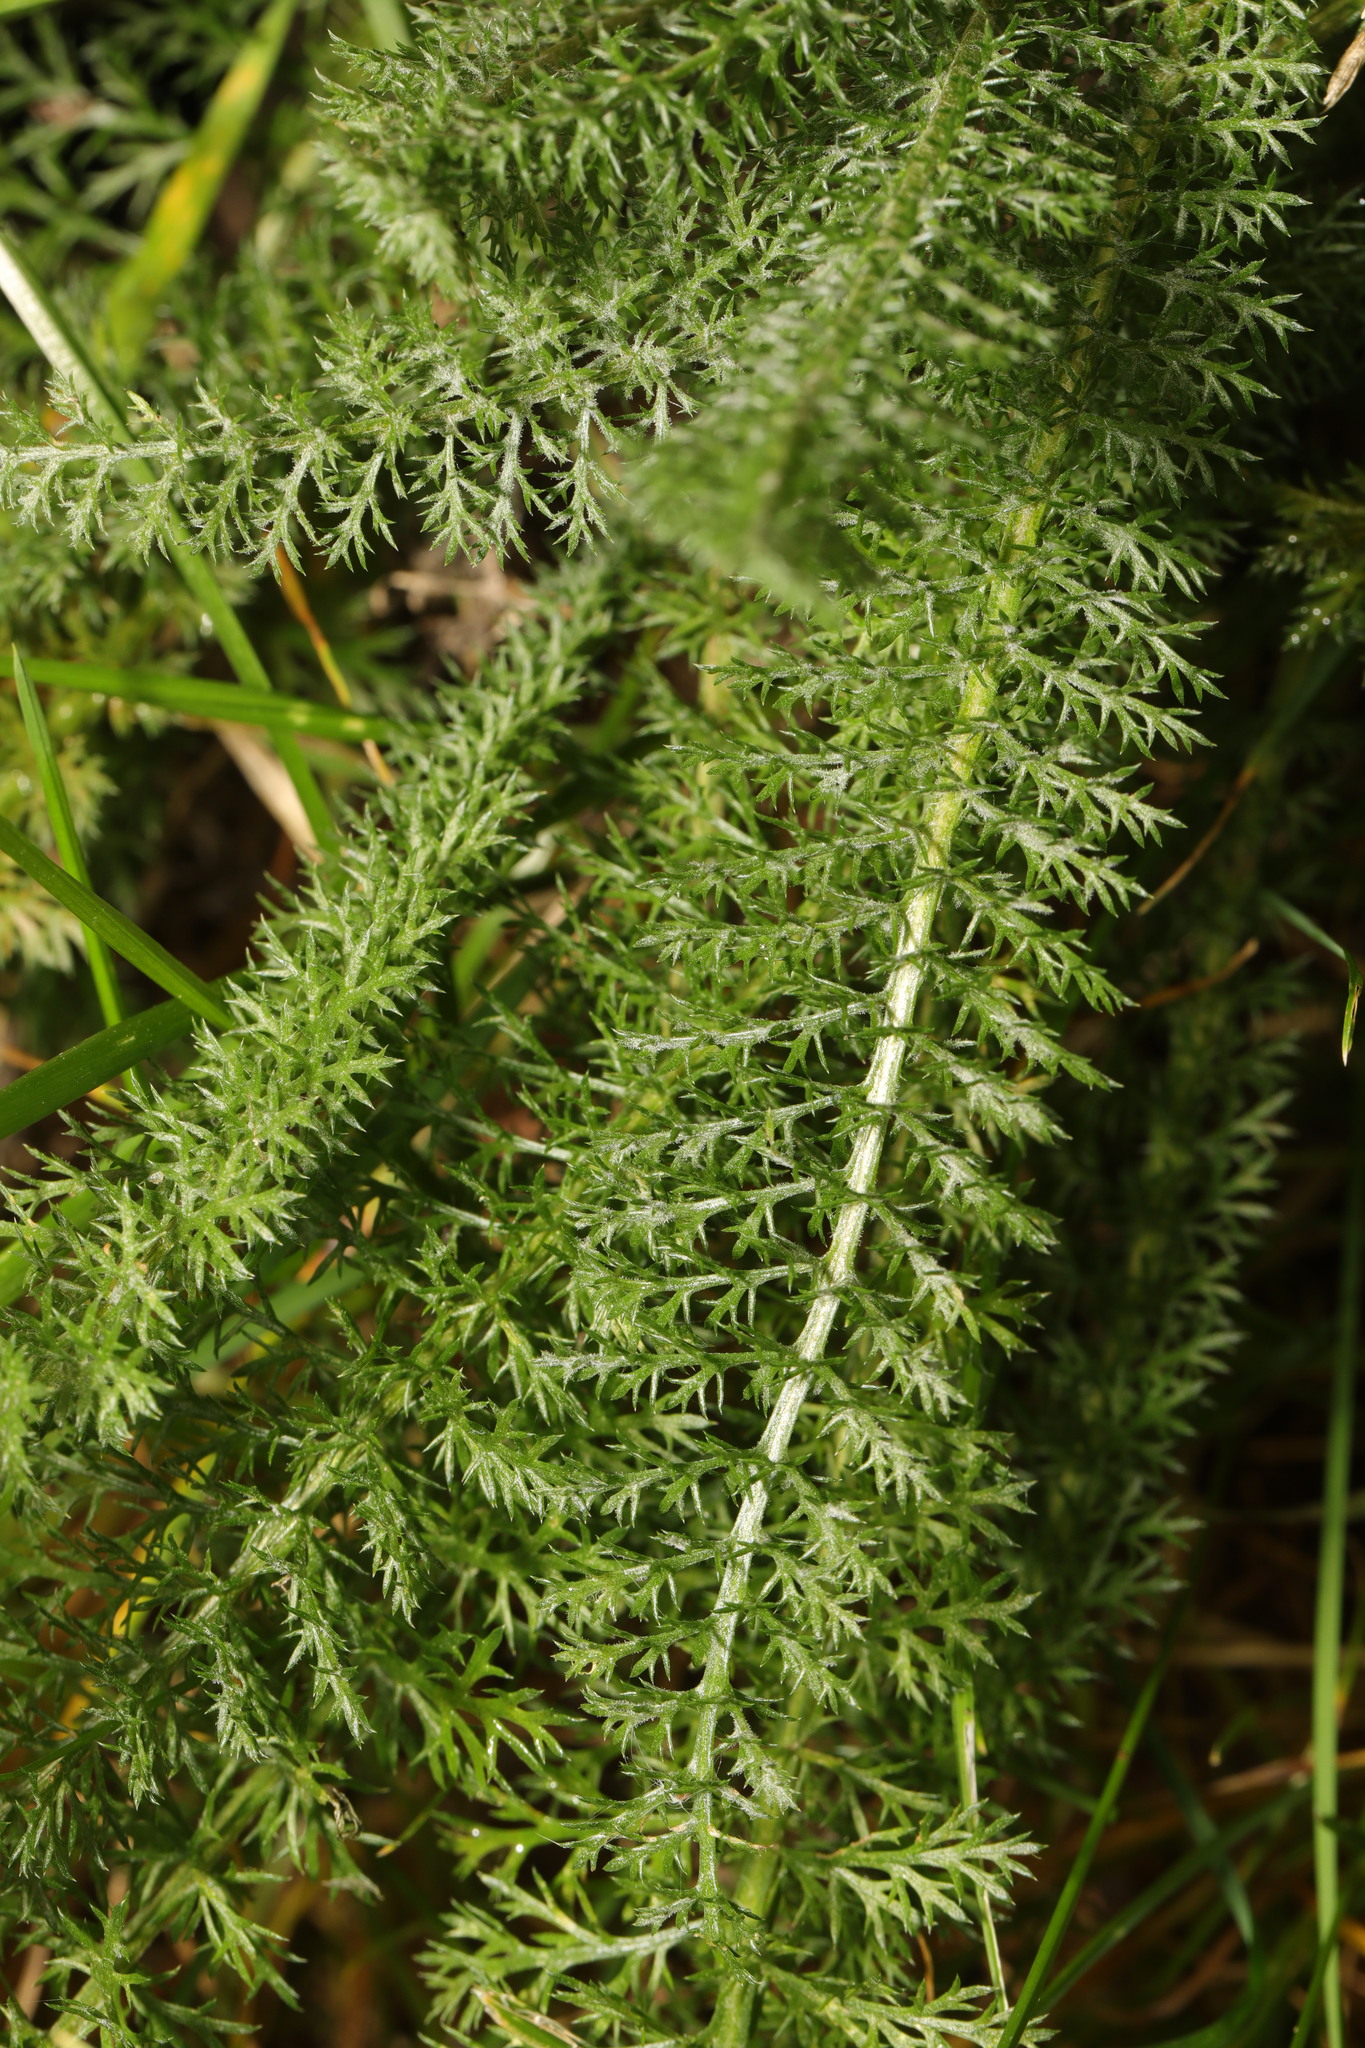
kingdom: Plantae
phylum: Tracheophyta
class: Magnoliopsida
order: Asterales
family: Asteraceae
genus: Achillea
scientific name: Achillea millefolium
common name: Yarrow
